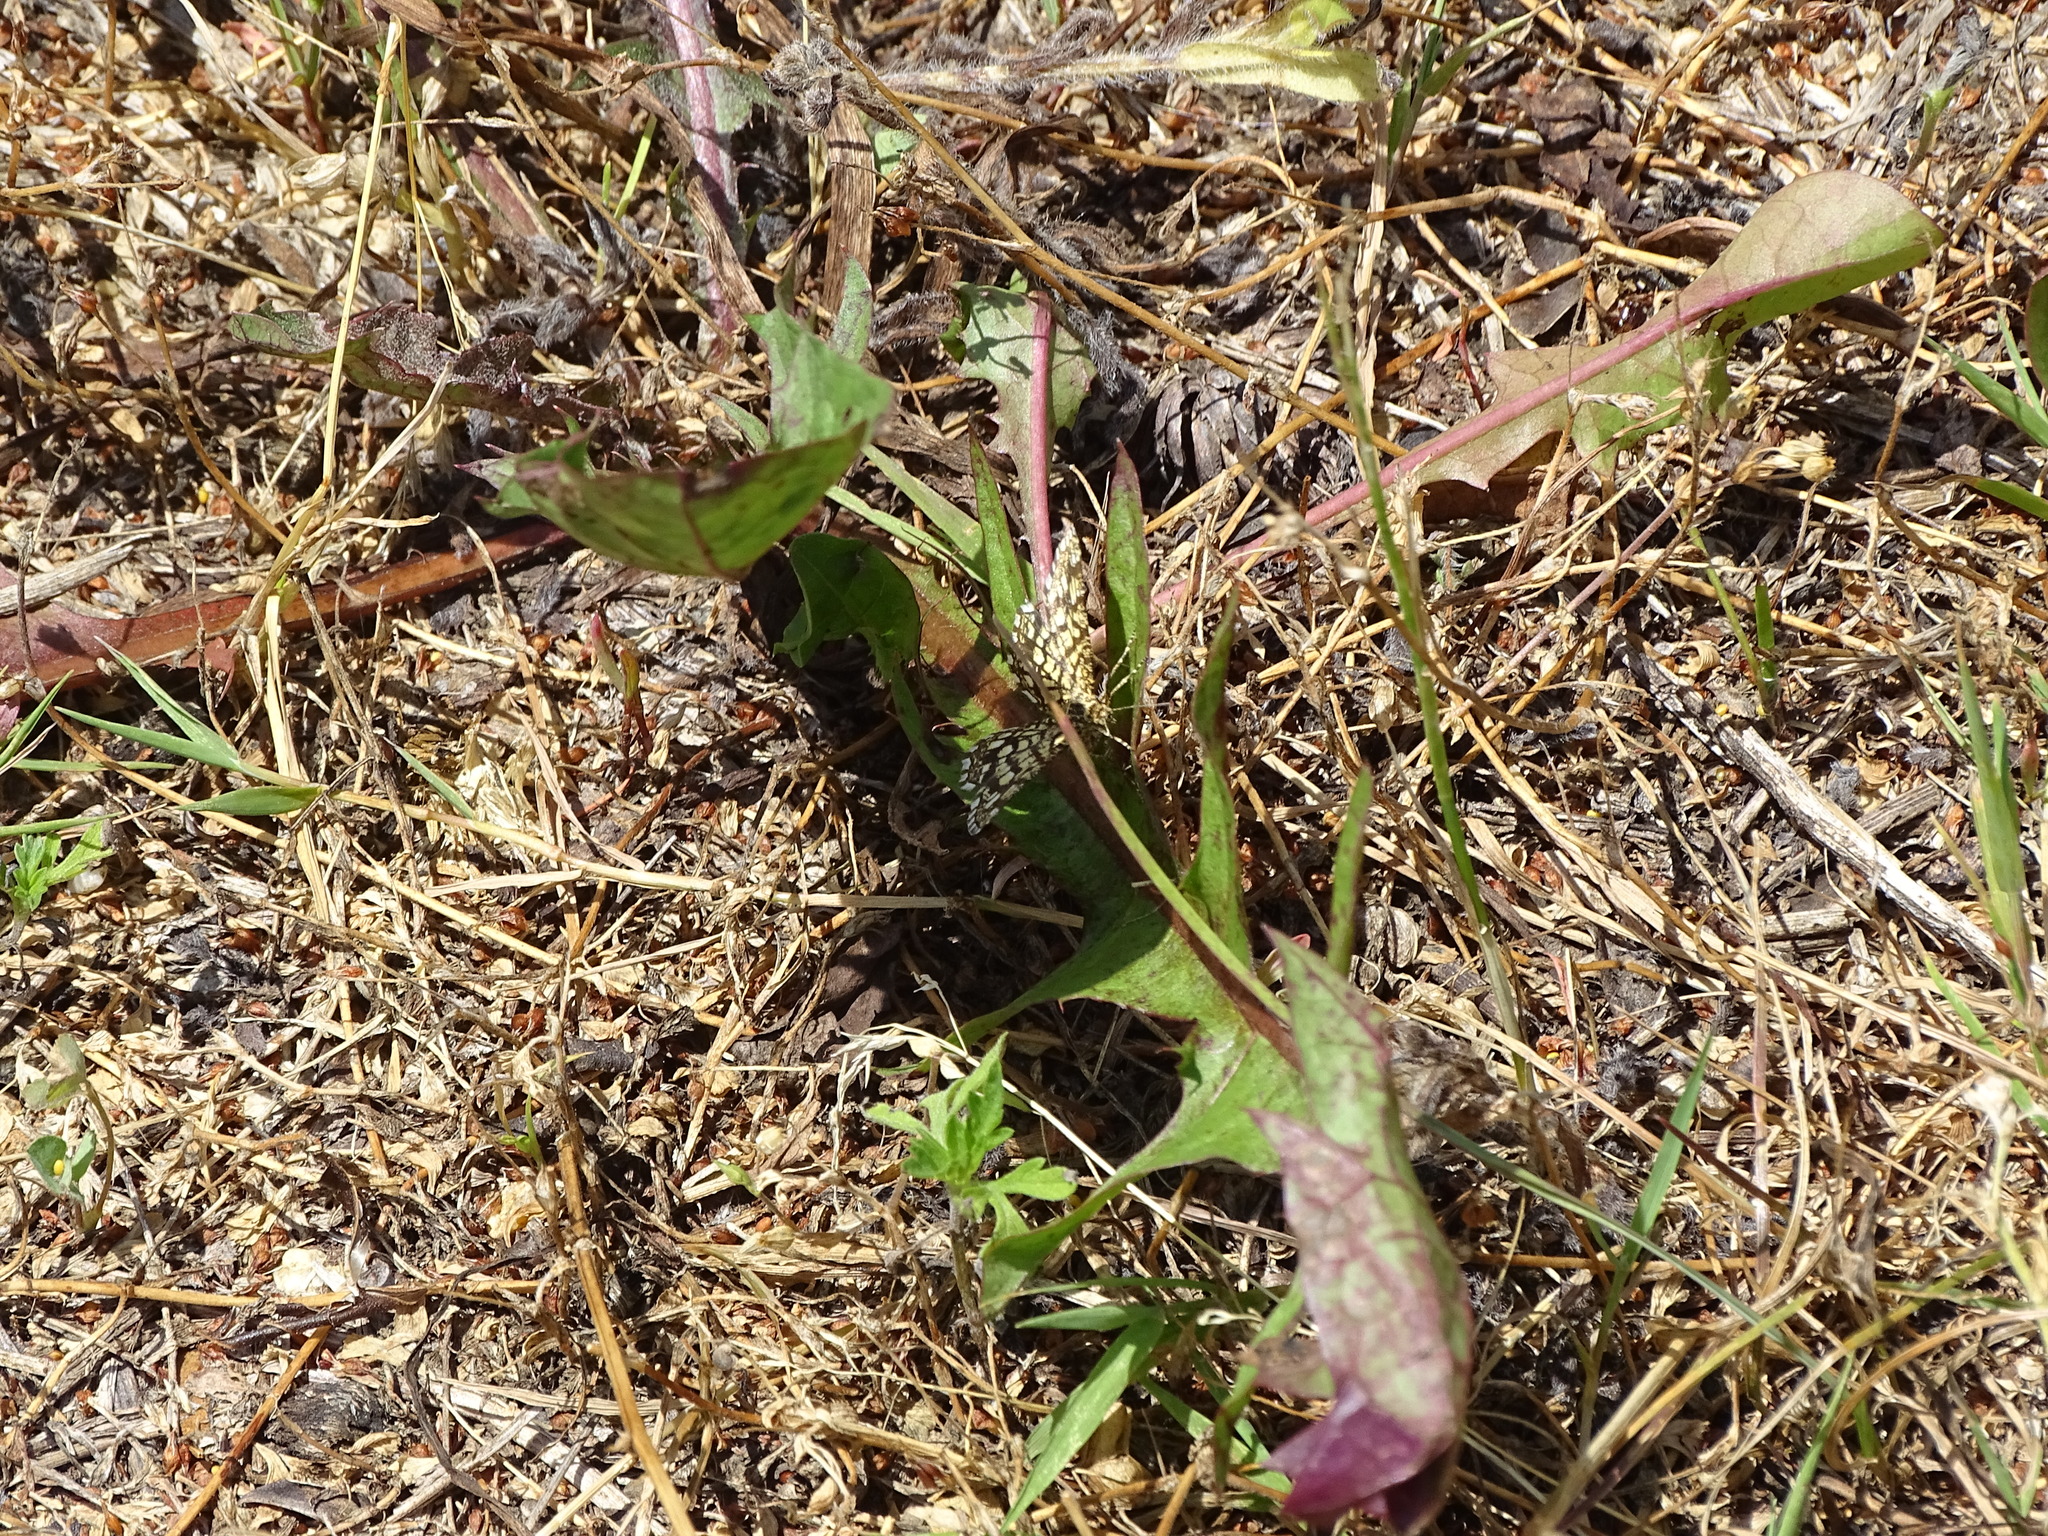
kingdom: Animalia
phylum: Arthropoda
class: Insecta
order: Lepidoptera
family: Geometridae
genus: Chiasmia
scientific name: Chiasmia clathrata
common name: Latticed heath
